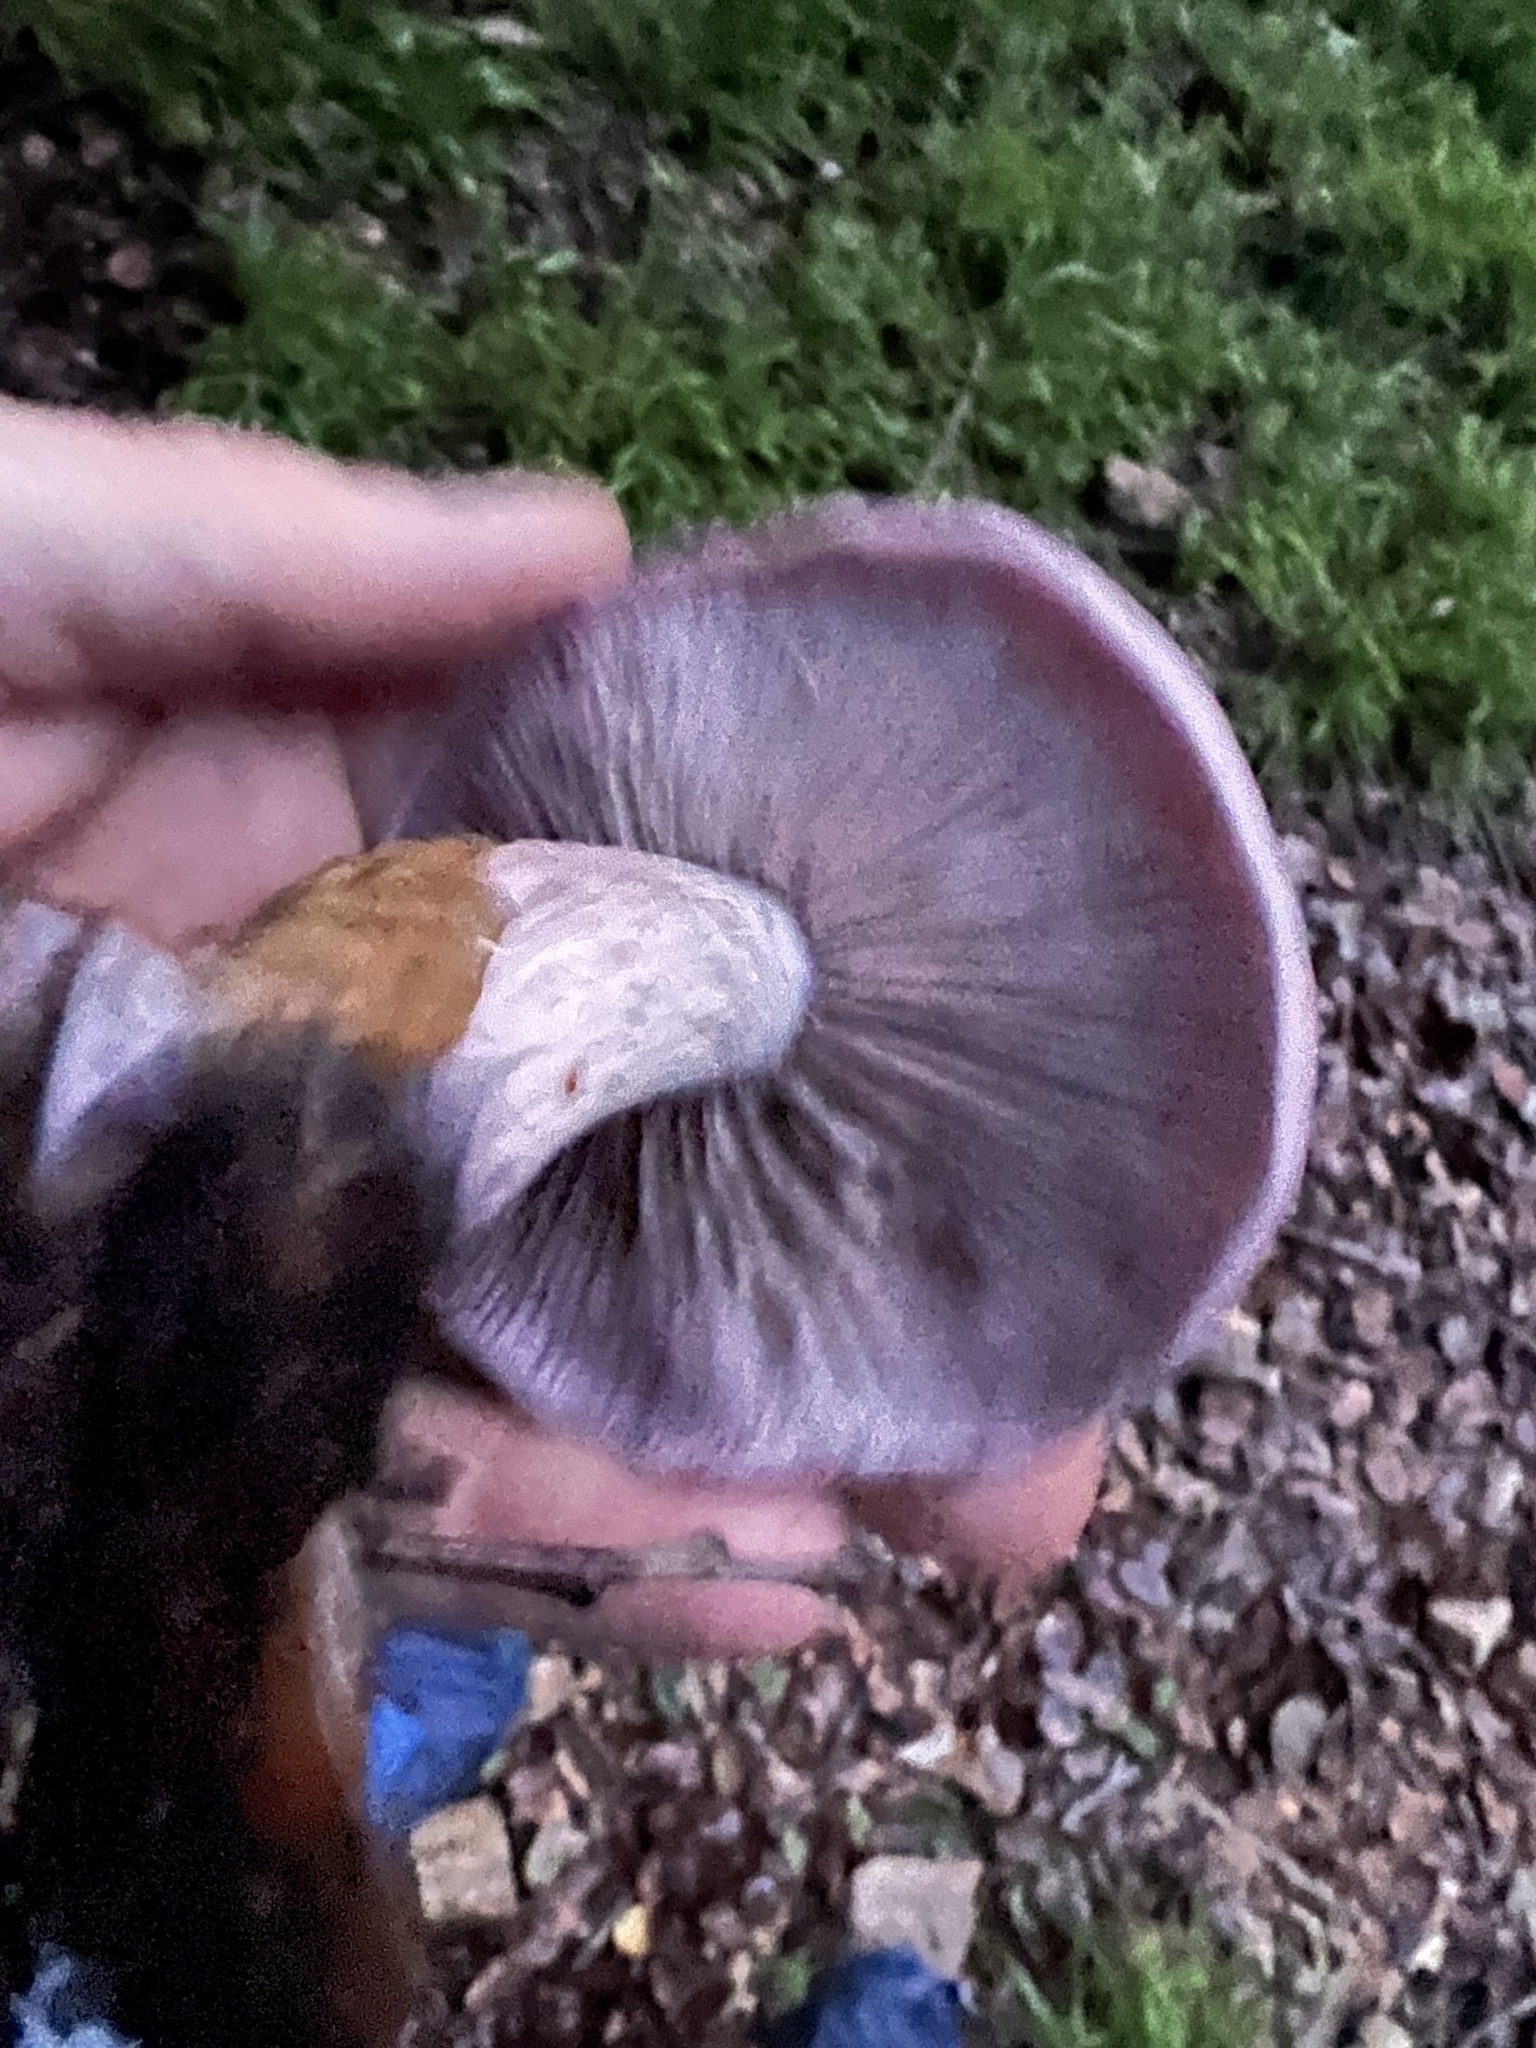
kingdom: Fungi
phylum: Basidiomycota
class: Agaricomycetes
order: Agaricales
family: Tricholomataceae
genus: Collybia
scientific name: Collybia
